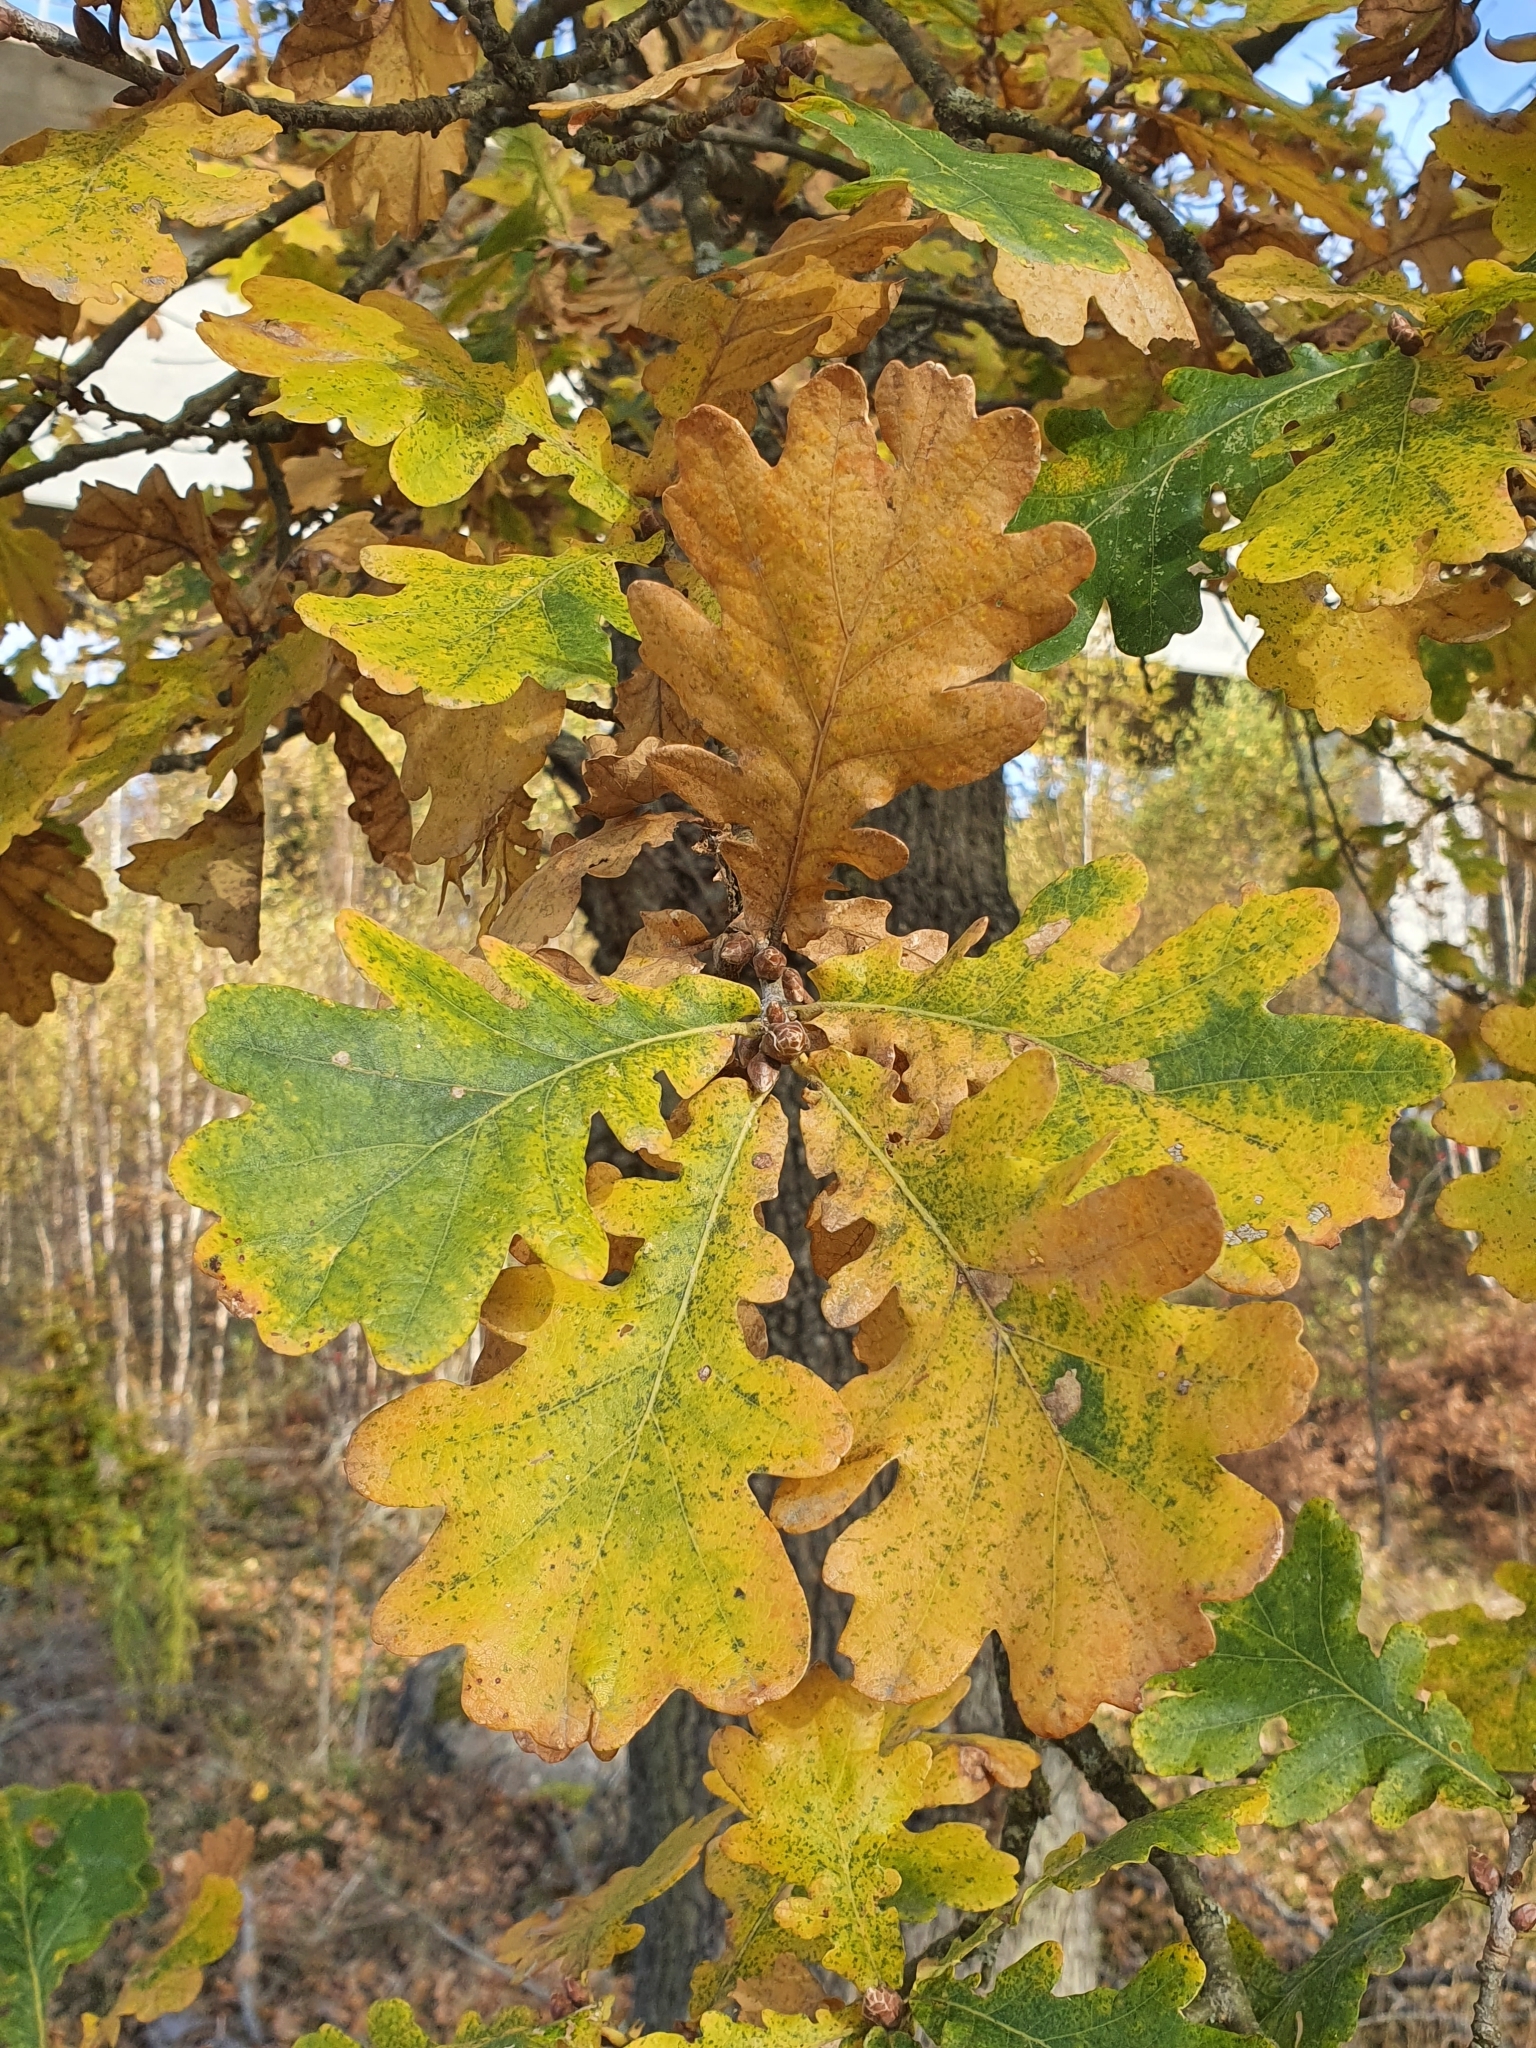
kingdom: Plantae
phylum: Tracheophyta
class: Magnoliopsida
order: Fagales
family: Fagaceae
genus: Quercus
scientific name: Quercus robur
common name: Pedunculate oak
